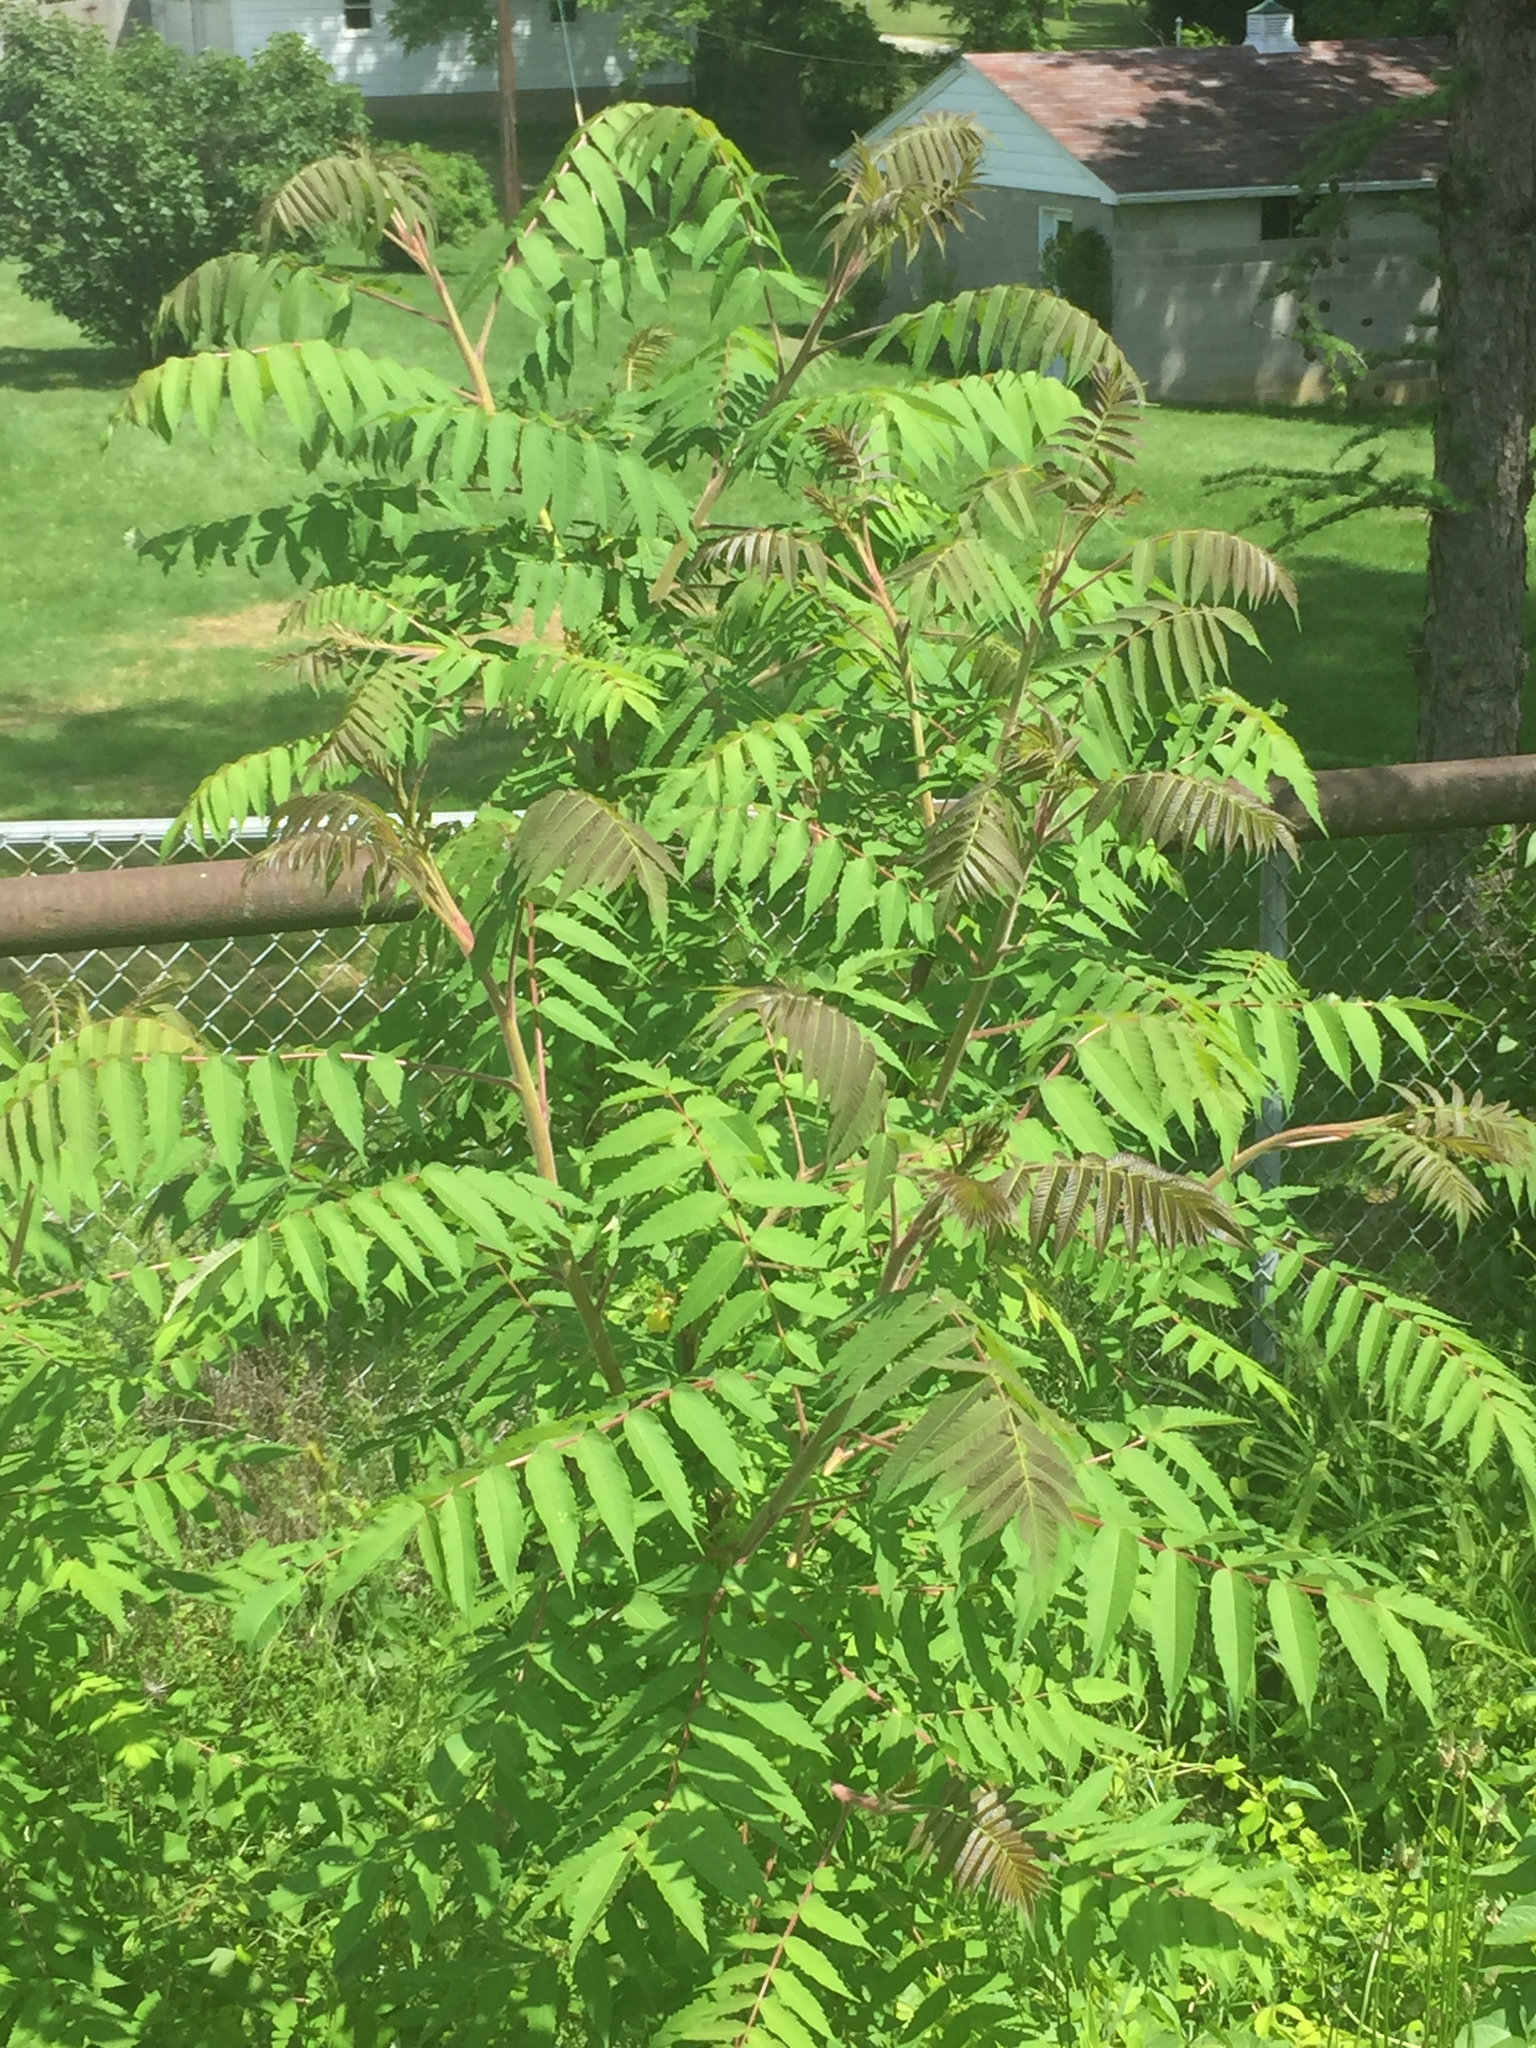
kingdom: Plantae
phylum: Tracheophyta
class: Magnoliopsida
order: Sapindales
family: Anacardiaceae
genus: Rhus
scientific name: Rhus typhina
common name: Staghorn sumac
